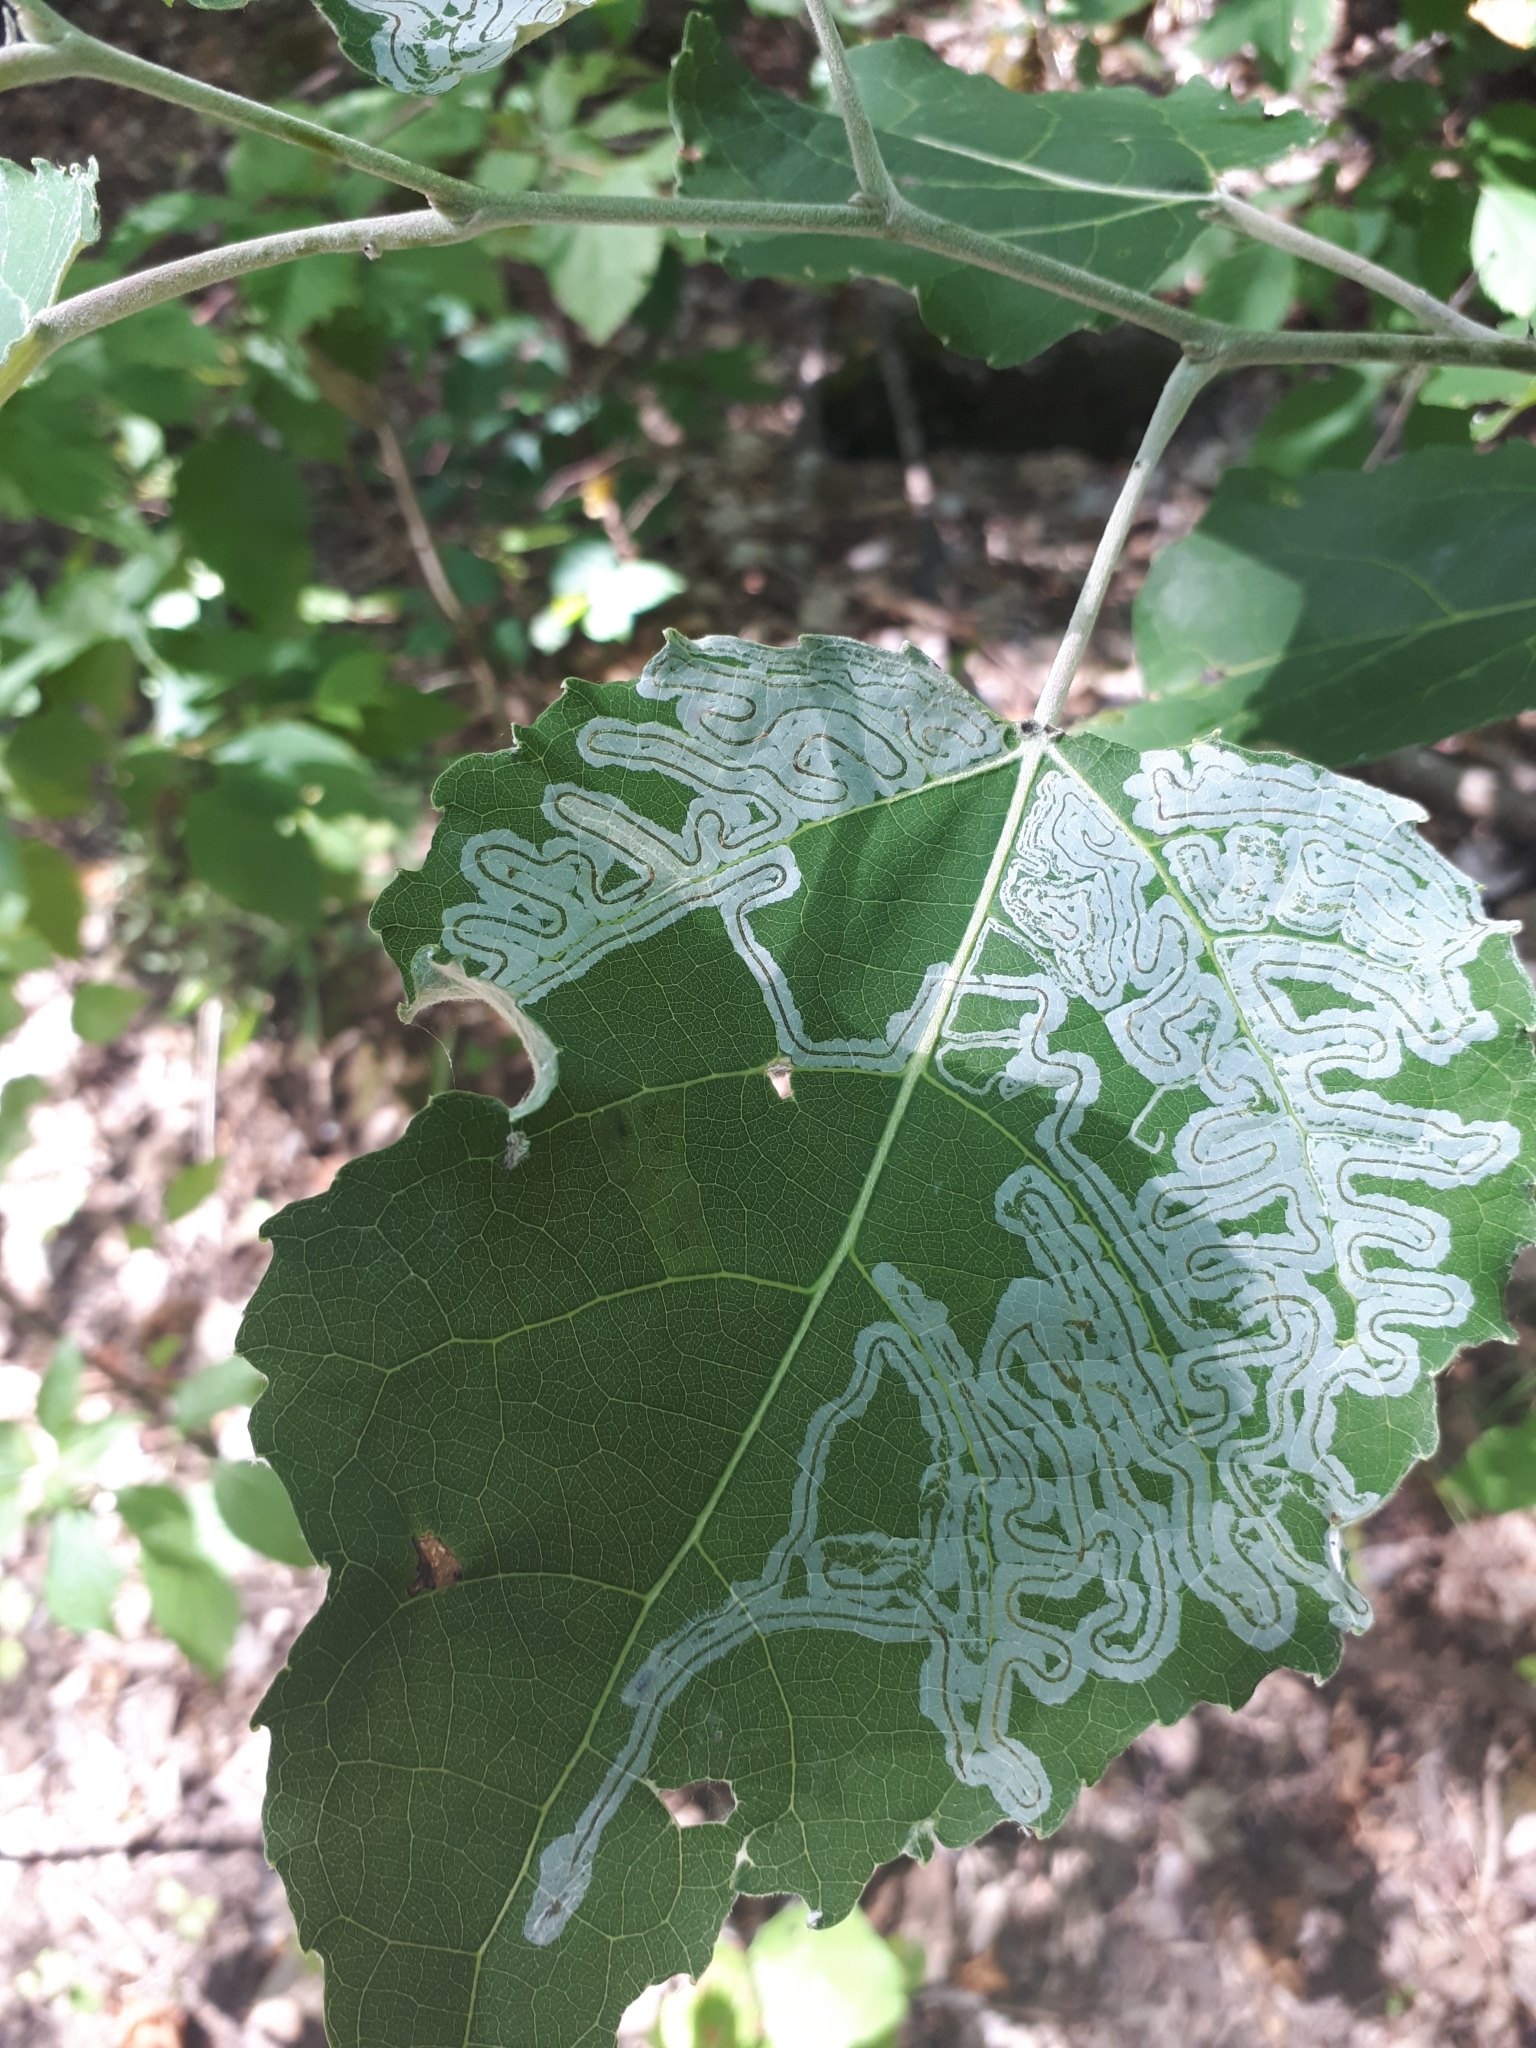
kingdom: Animalia
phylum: Arthropoda
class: Insecta
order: Lepidoptera
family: Gracillariidae
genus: Phyllocnistis
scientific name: Phyllocnistis populiella
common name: Aspen serpentine leafminer moth
